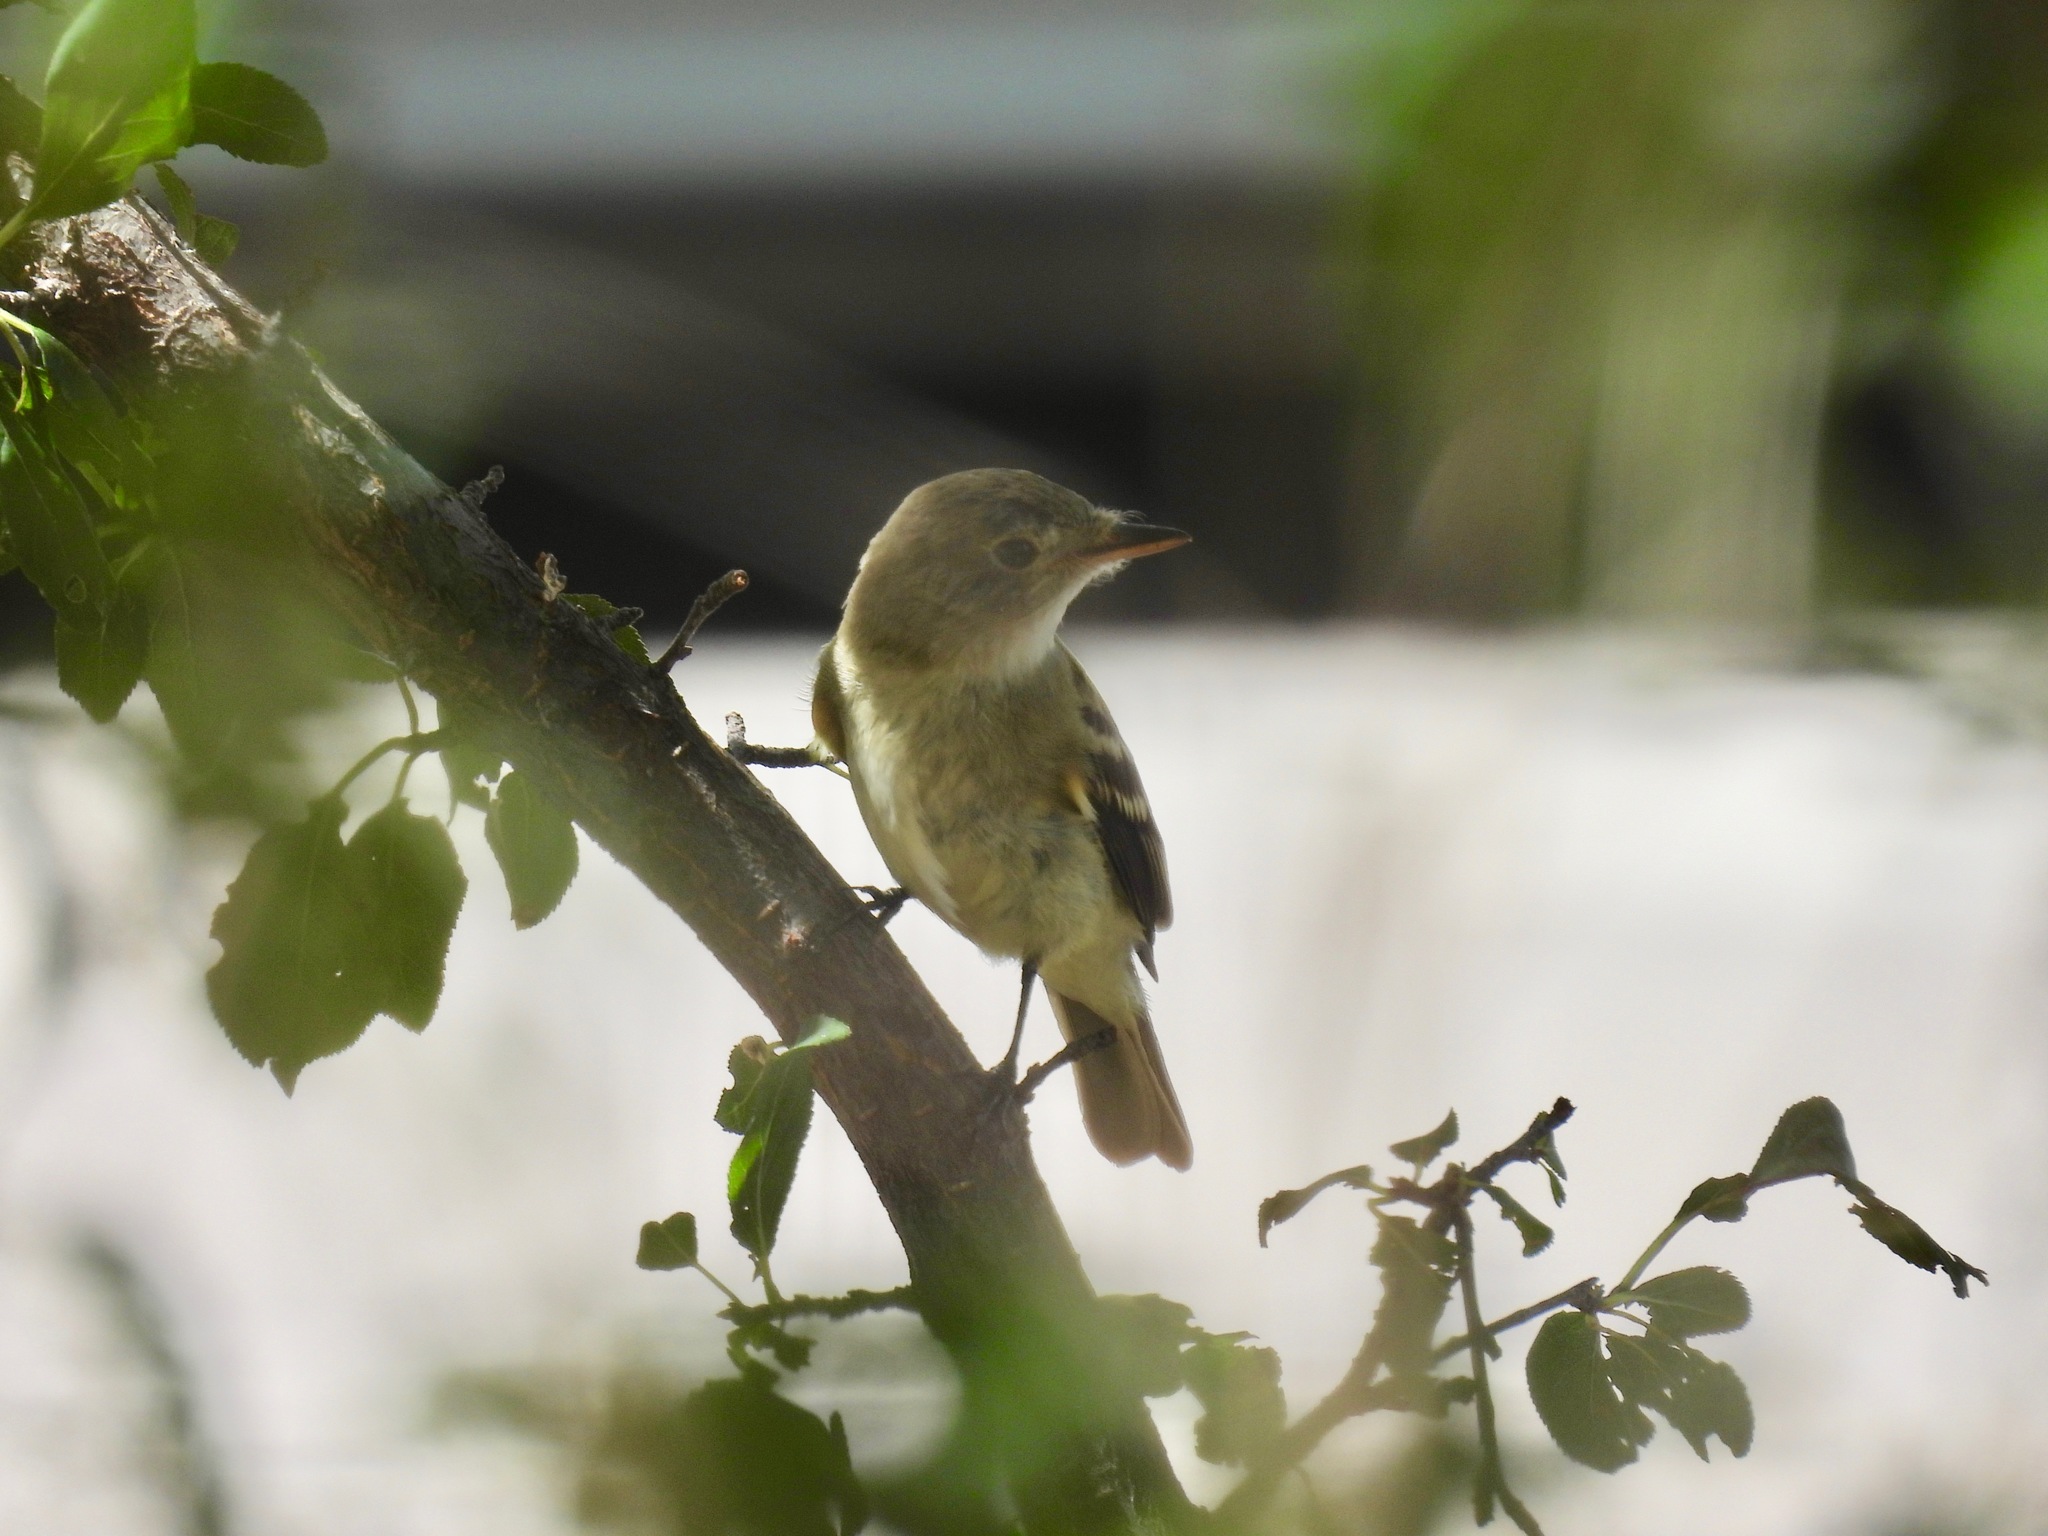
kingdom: Animalia
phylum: Chordata
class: Aves
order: Passeriformes
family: Tyrannidae
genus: Empidonax
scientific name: Empidonax traillii
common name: Willow flycatcher
